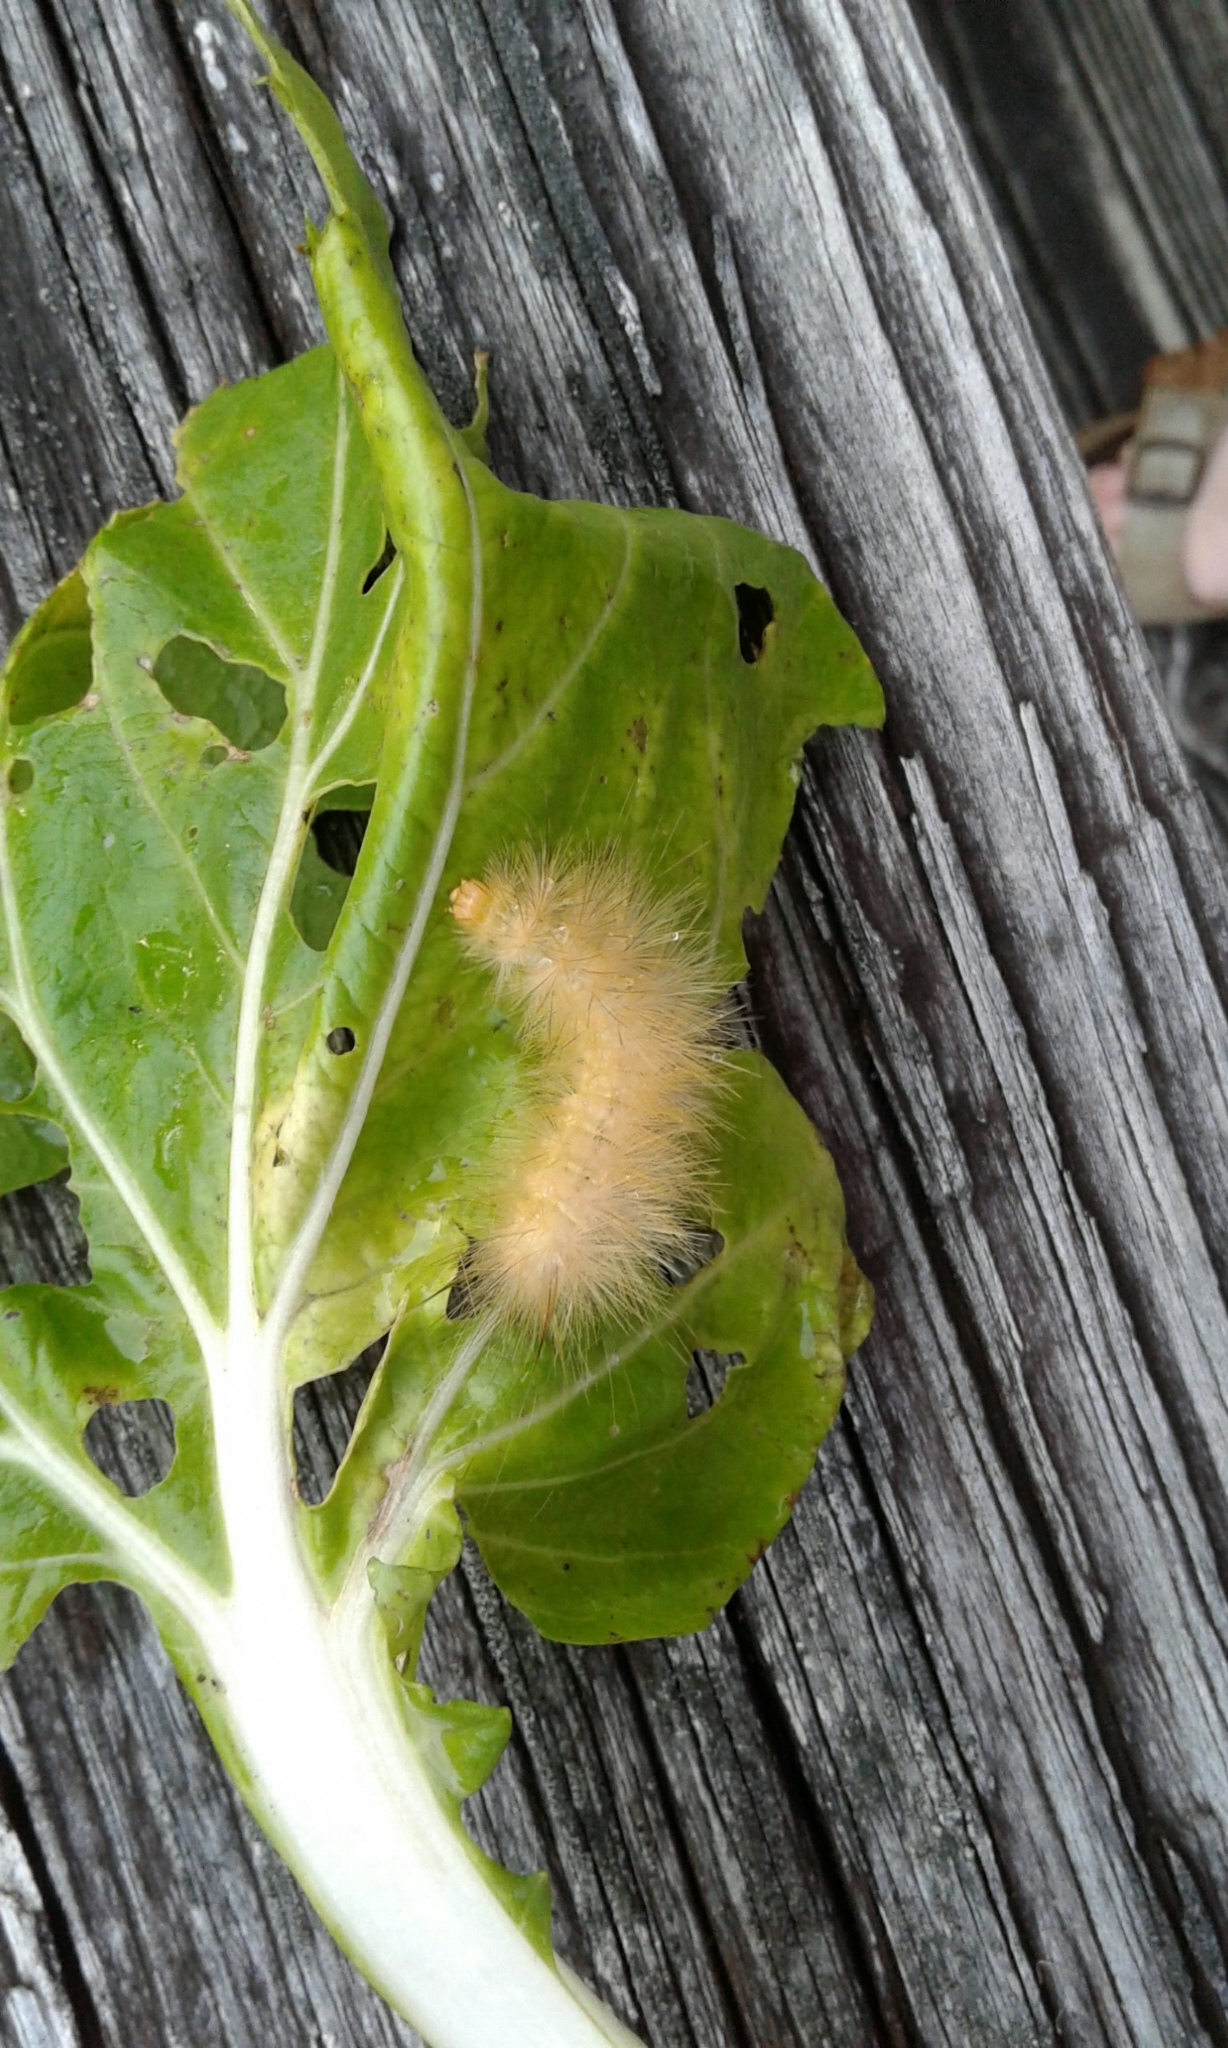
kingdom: Animalia
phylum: Arthropoda
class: Insecta
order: Lepidoptera
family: Erebidae
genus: Spilosoma
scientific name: Spilosoma virginica
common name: Virginia tiger moth
